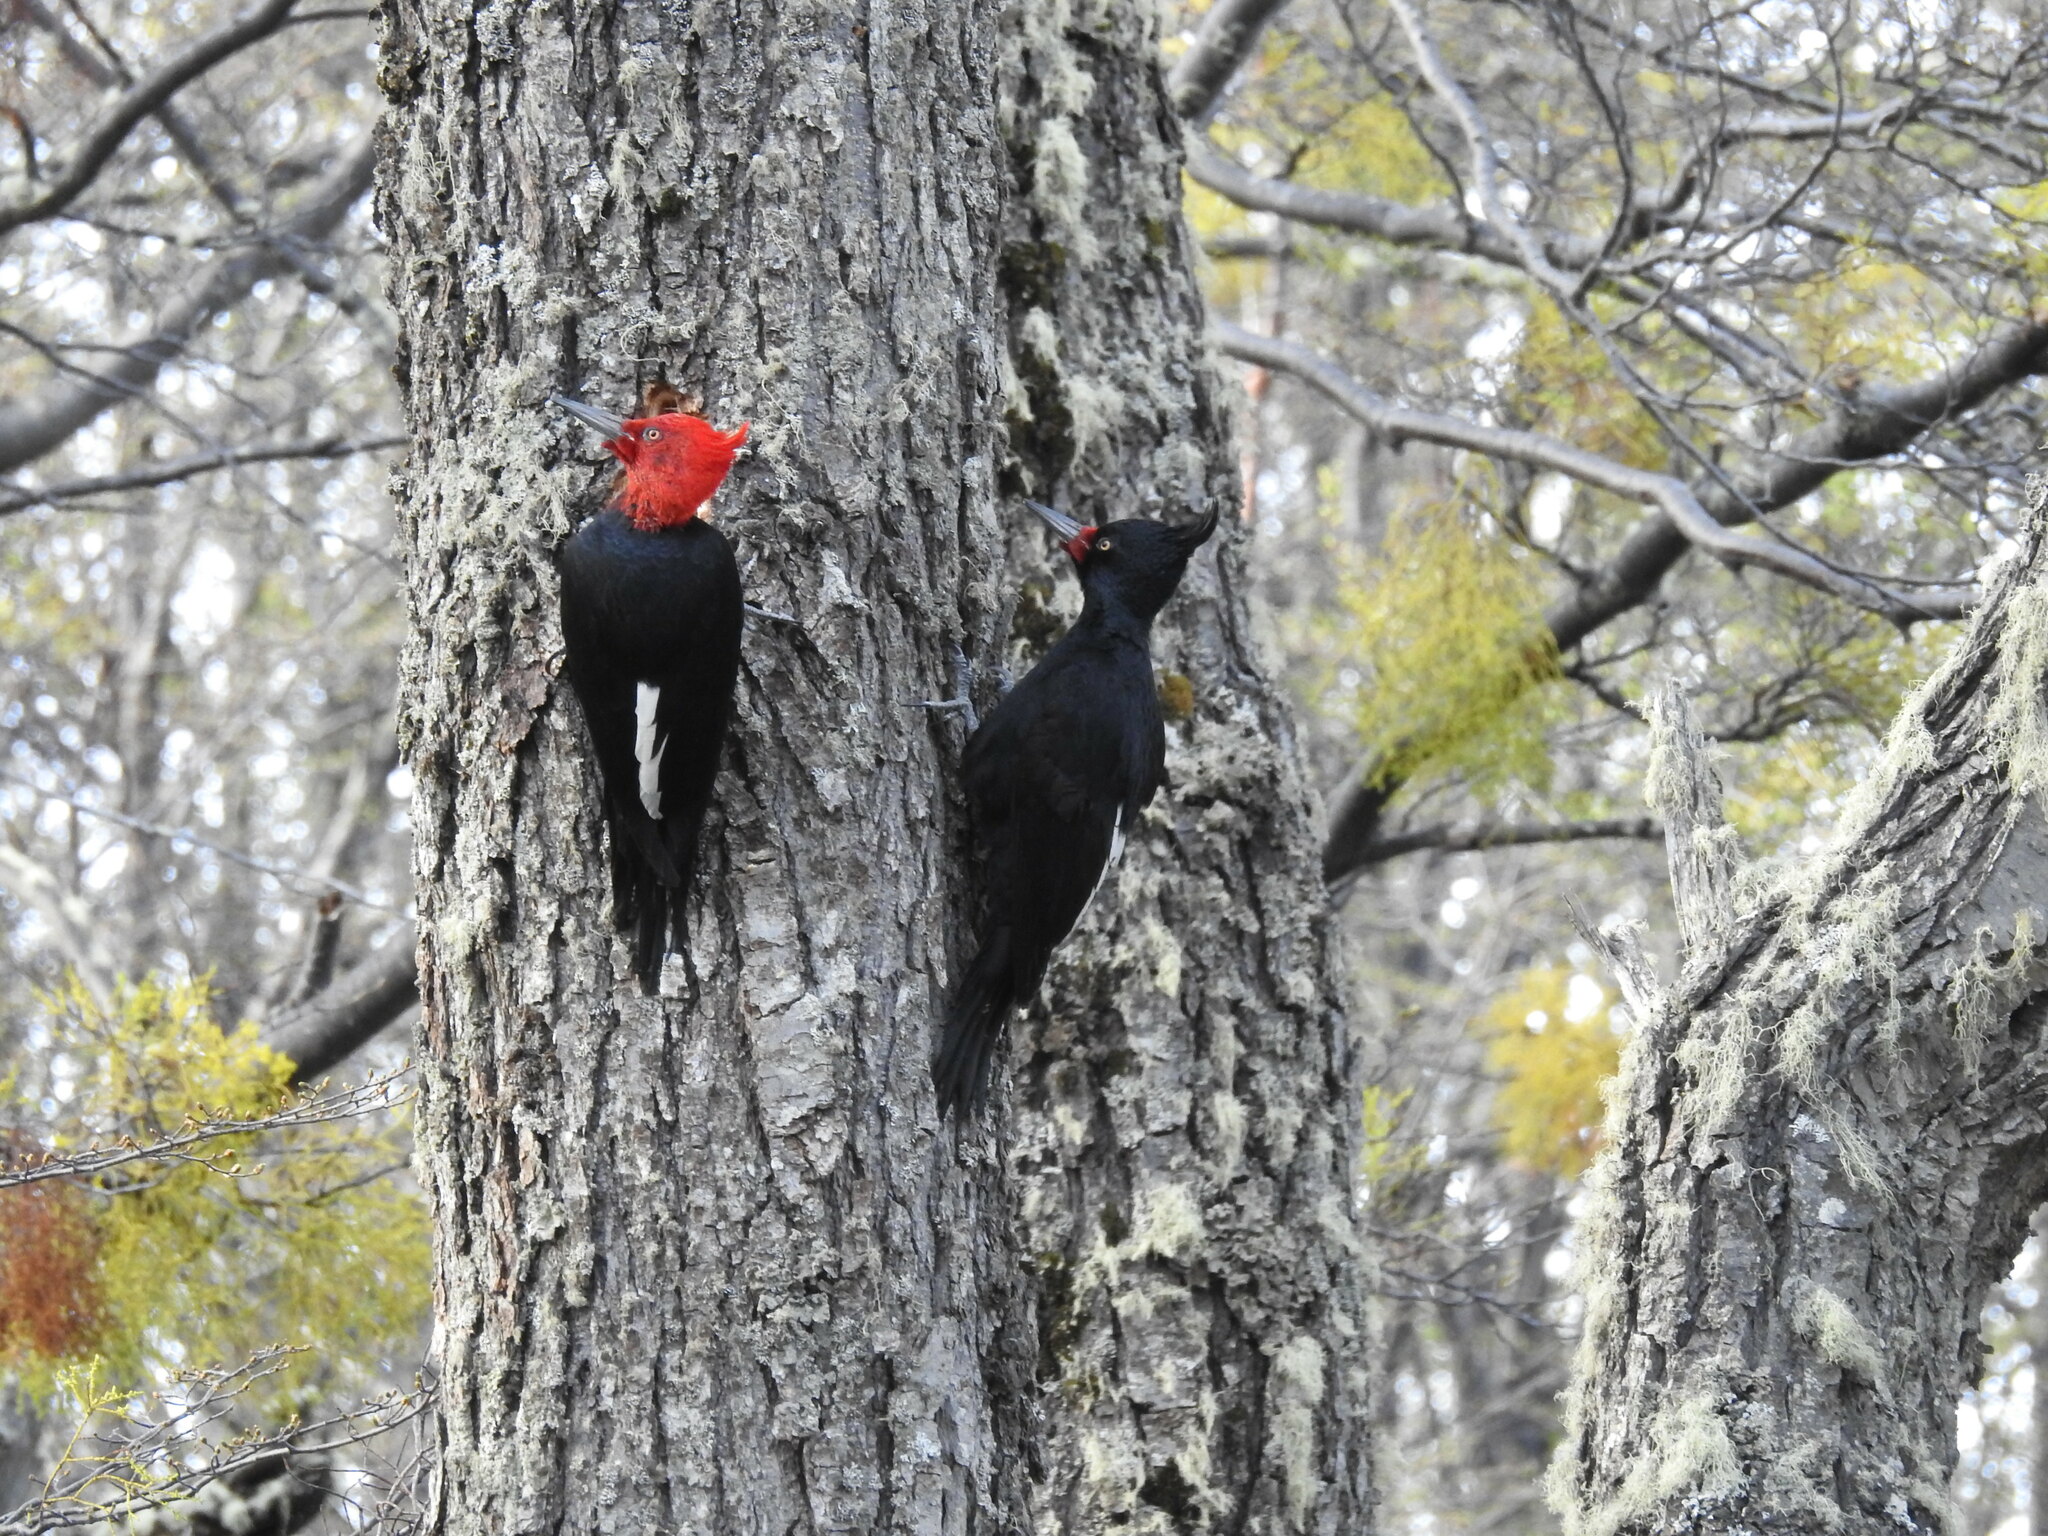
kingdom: Animalia
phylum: Chordata
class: Aves
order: Piciformes
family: Picidae
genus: Campephilus
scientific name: Campephilus magellanicus
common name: Magellanic woodpecker
